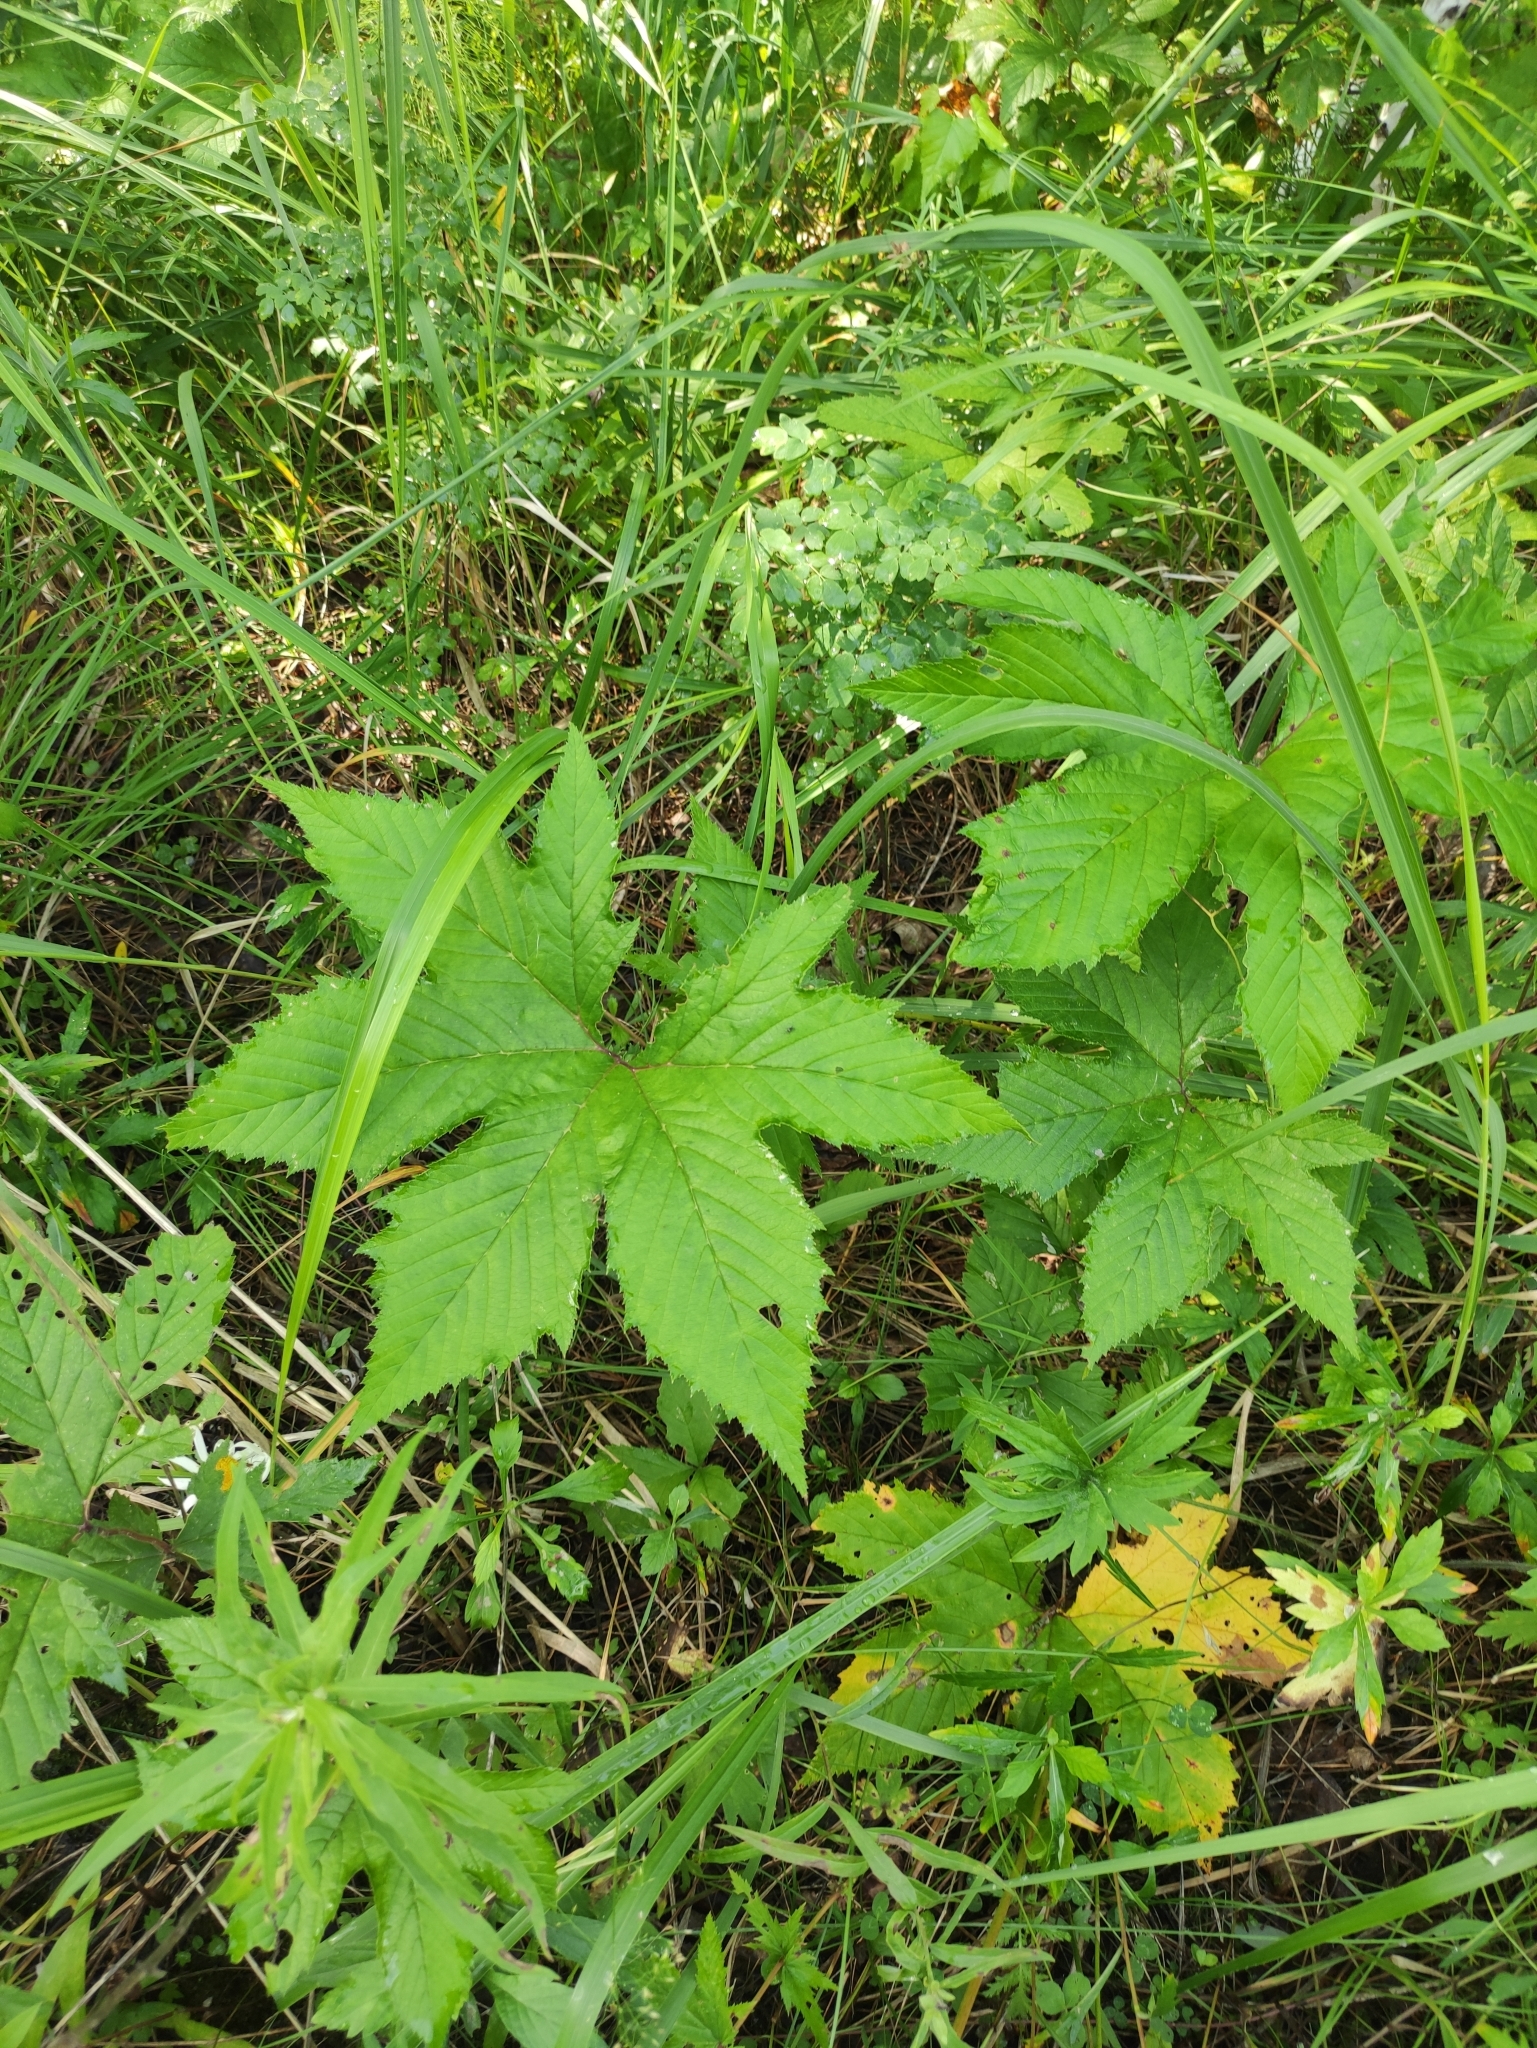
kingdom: Plantae
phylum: Tracheophyta
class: Magnoliopsida
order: Rosales
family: Rosaceae
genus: Filipendula
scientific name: Filipendula digitata
